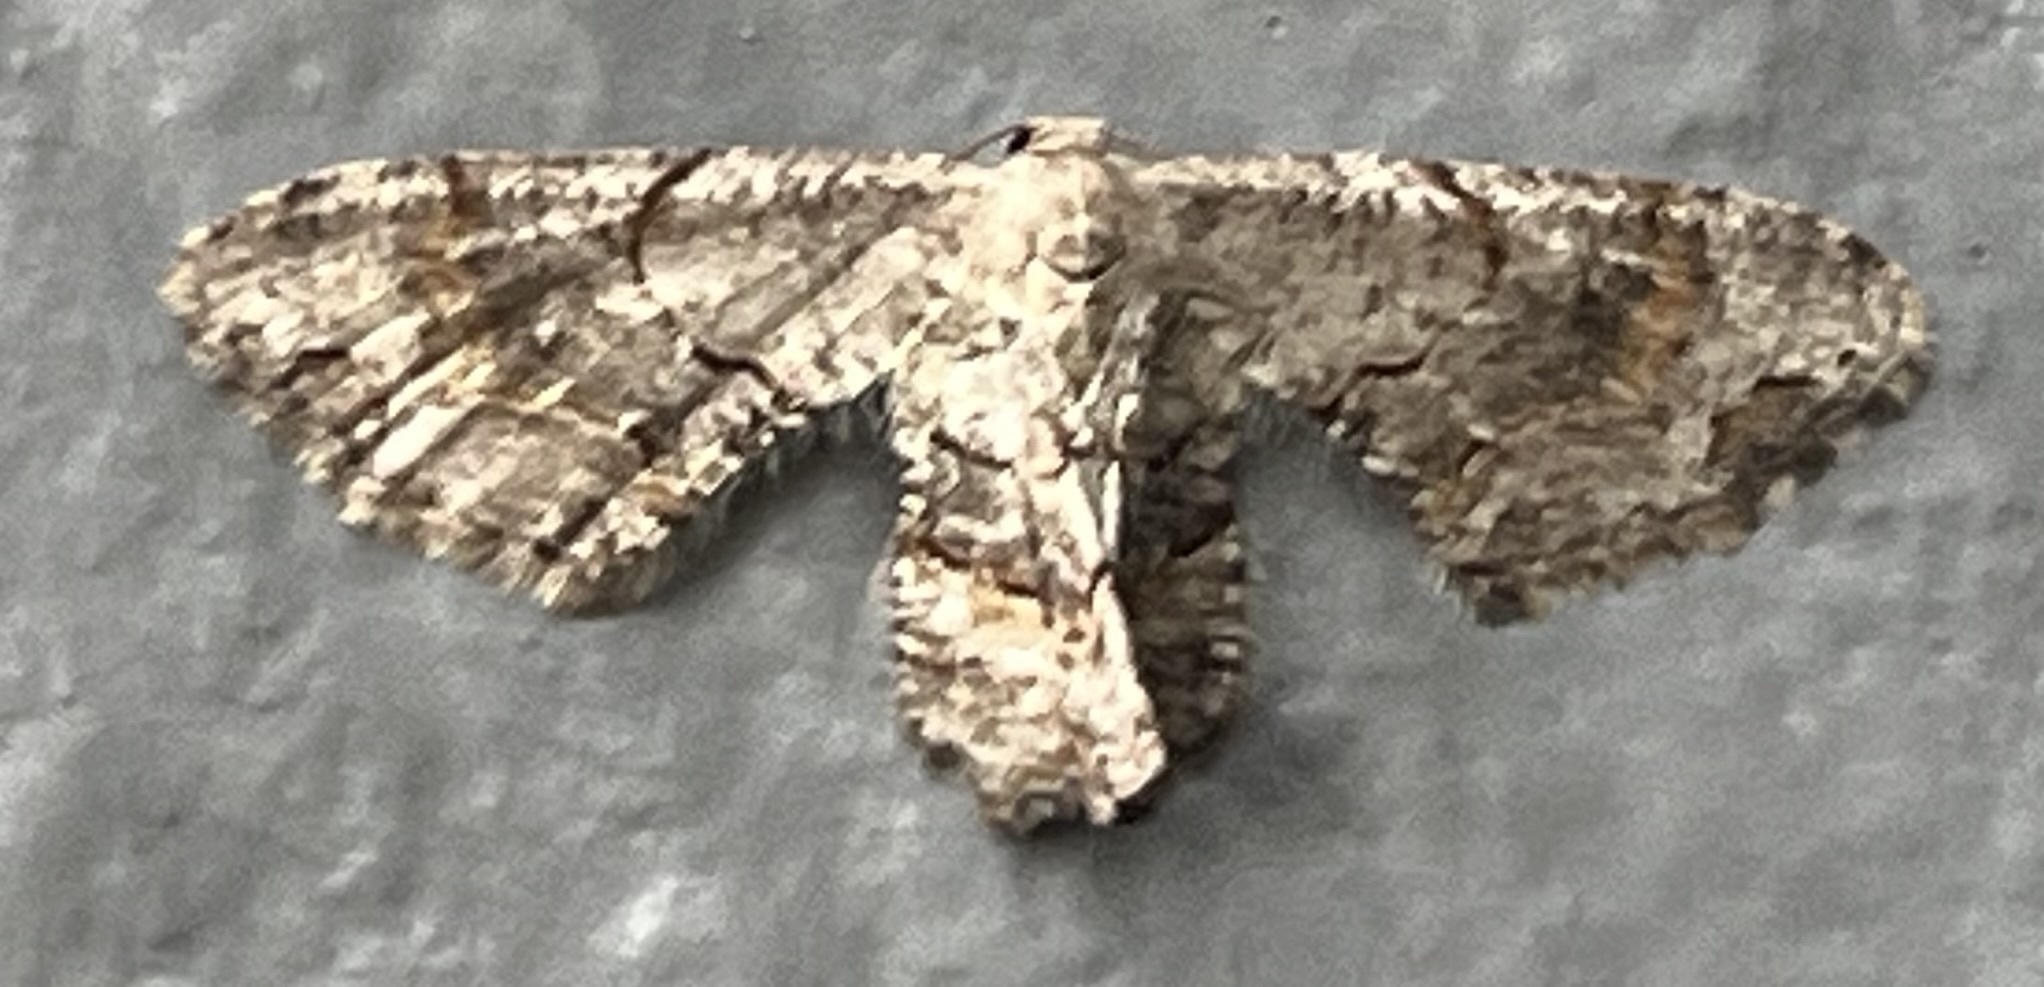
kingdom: Animalia
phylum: Arthropoda
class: Insecta
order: Lepidoptera
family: Uraniidae
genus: Epiplema
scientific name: Epiplema Callizzia amorata
